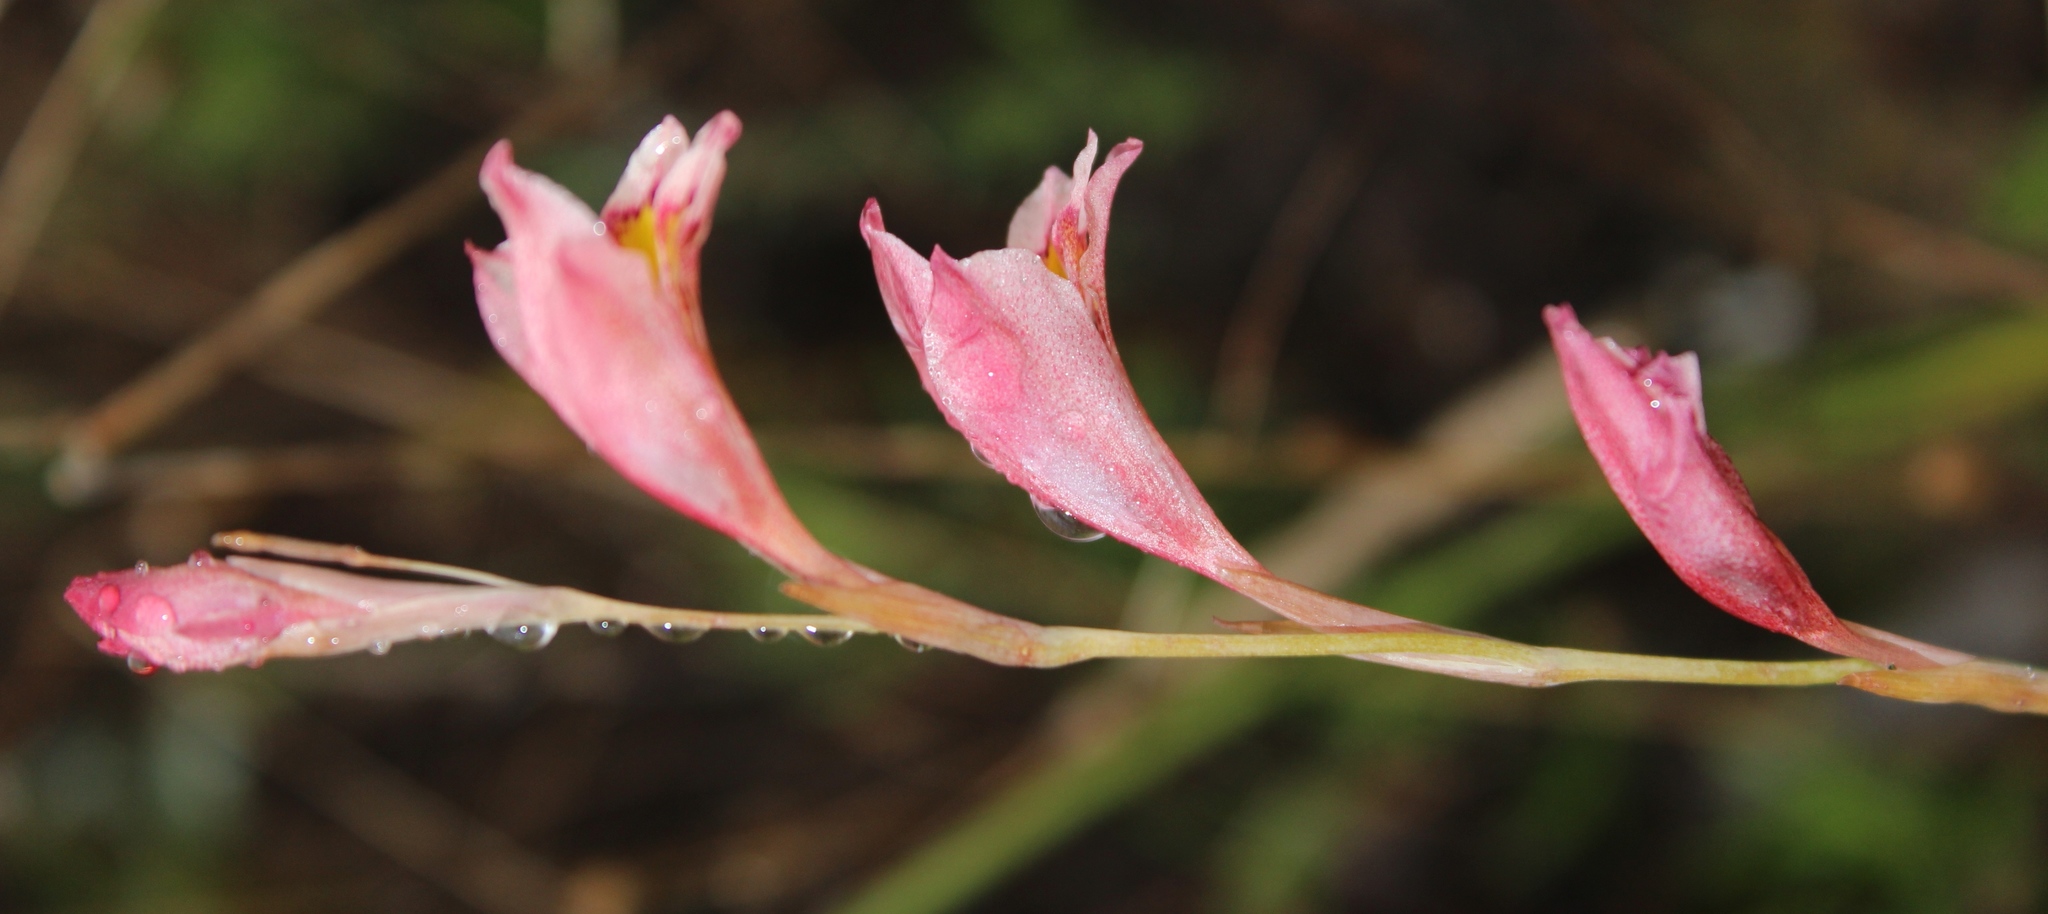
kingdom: Plantae
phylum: Tracheophyta
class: Liliopsida
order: Asparagales
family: Iridaceae
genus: Gladiolus
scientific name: Gladiolus brevifolius
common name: March pypie
